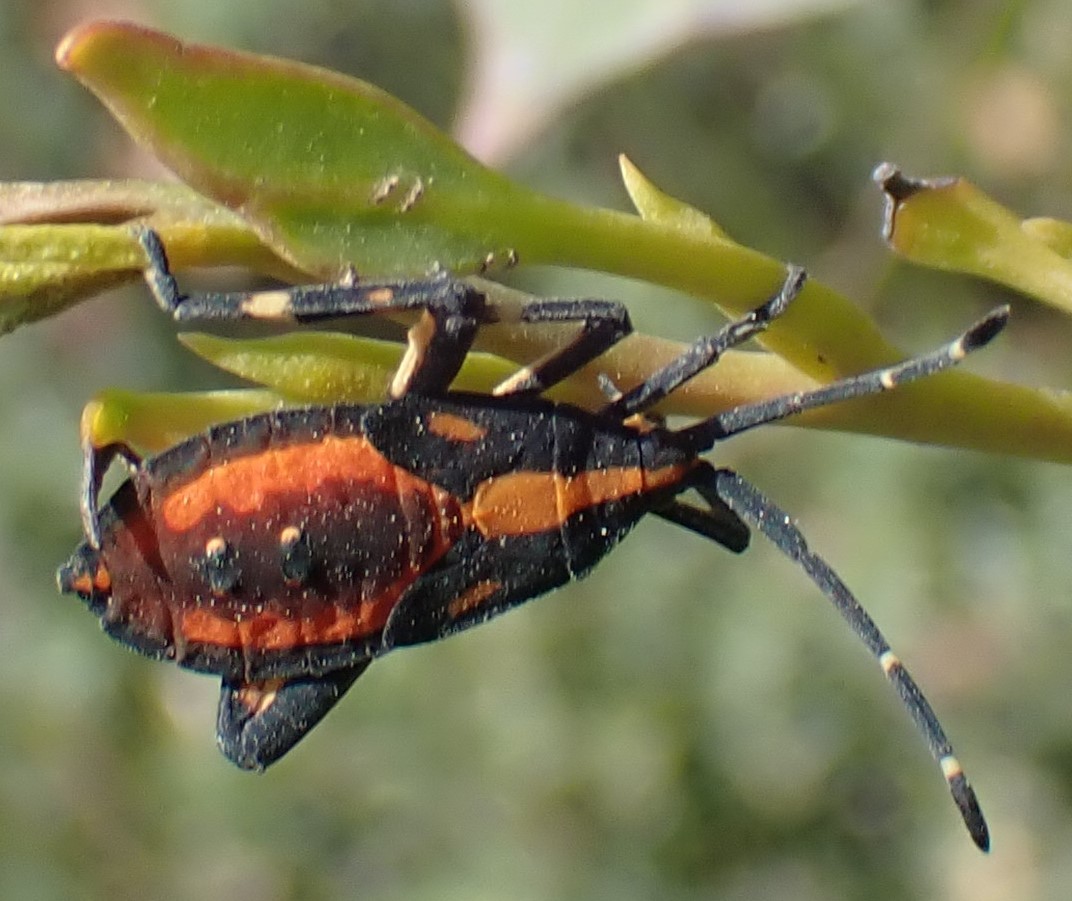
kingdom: Animalia
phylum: Arthropoda
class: Insecta
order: Hemiptera
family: Coreidae
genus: Amorbus
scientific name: Amorbus obscuricornis
